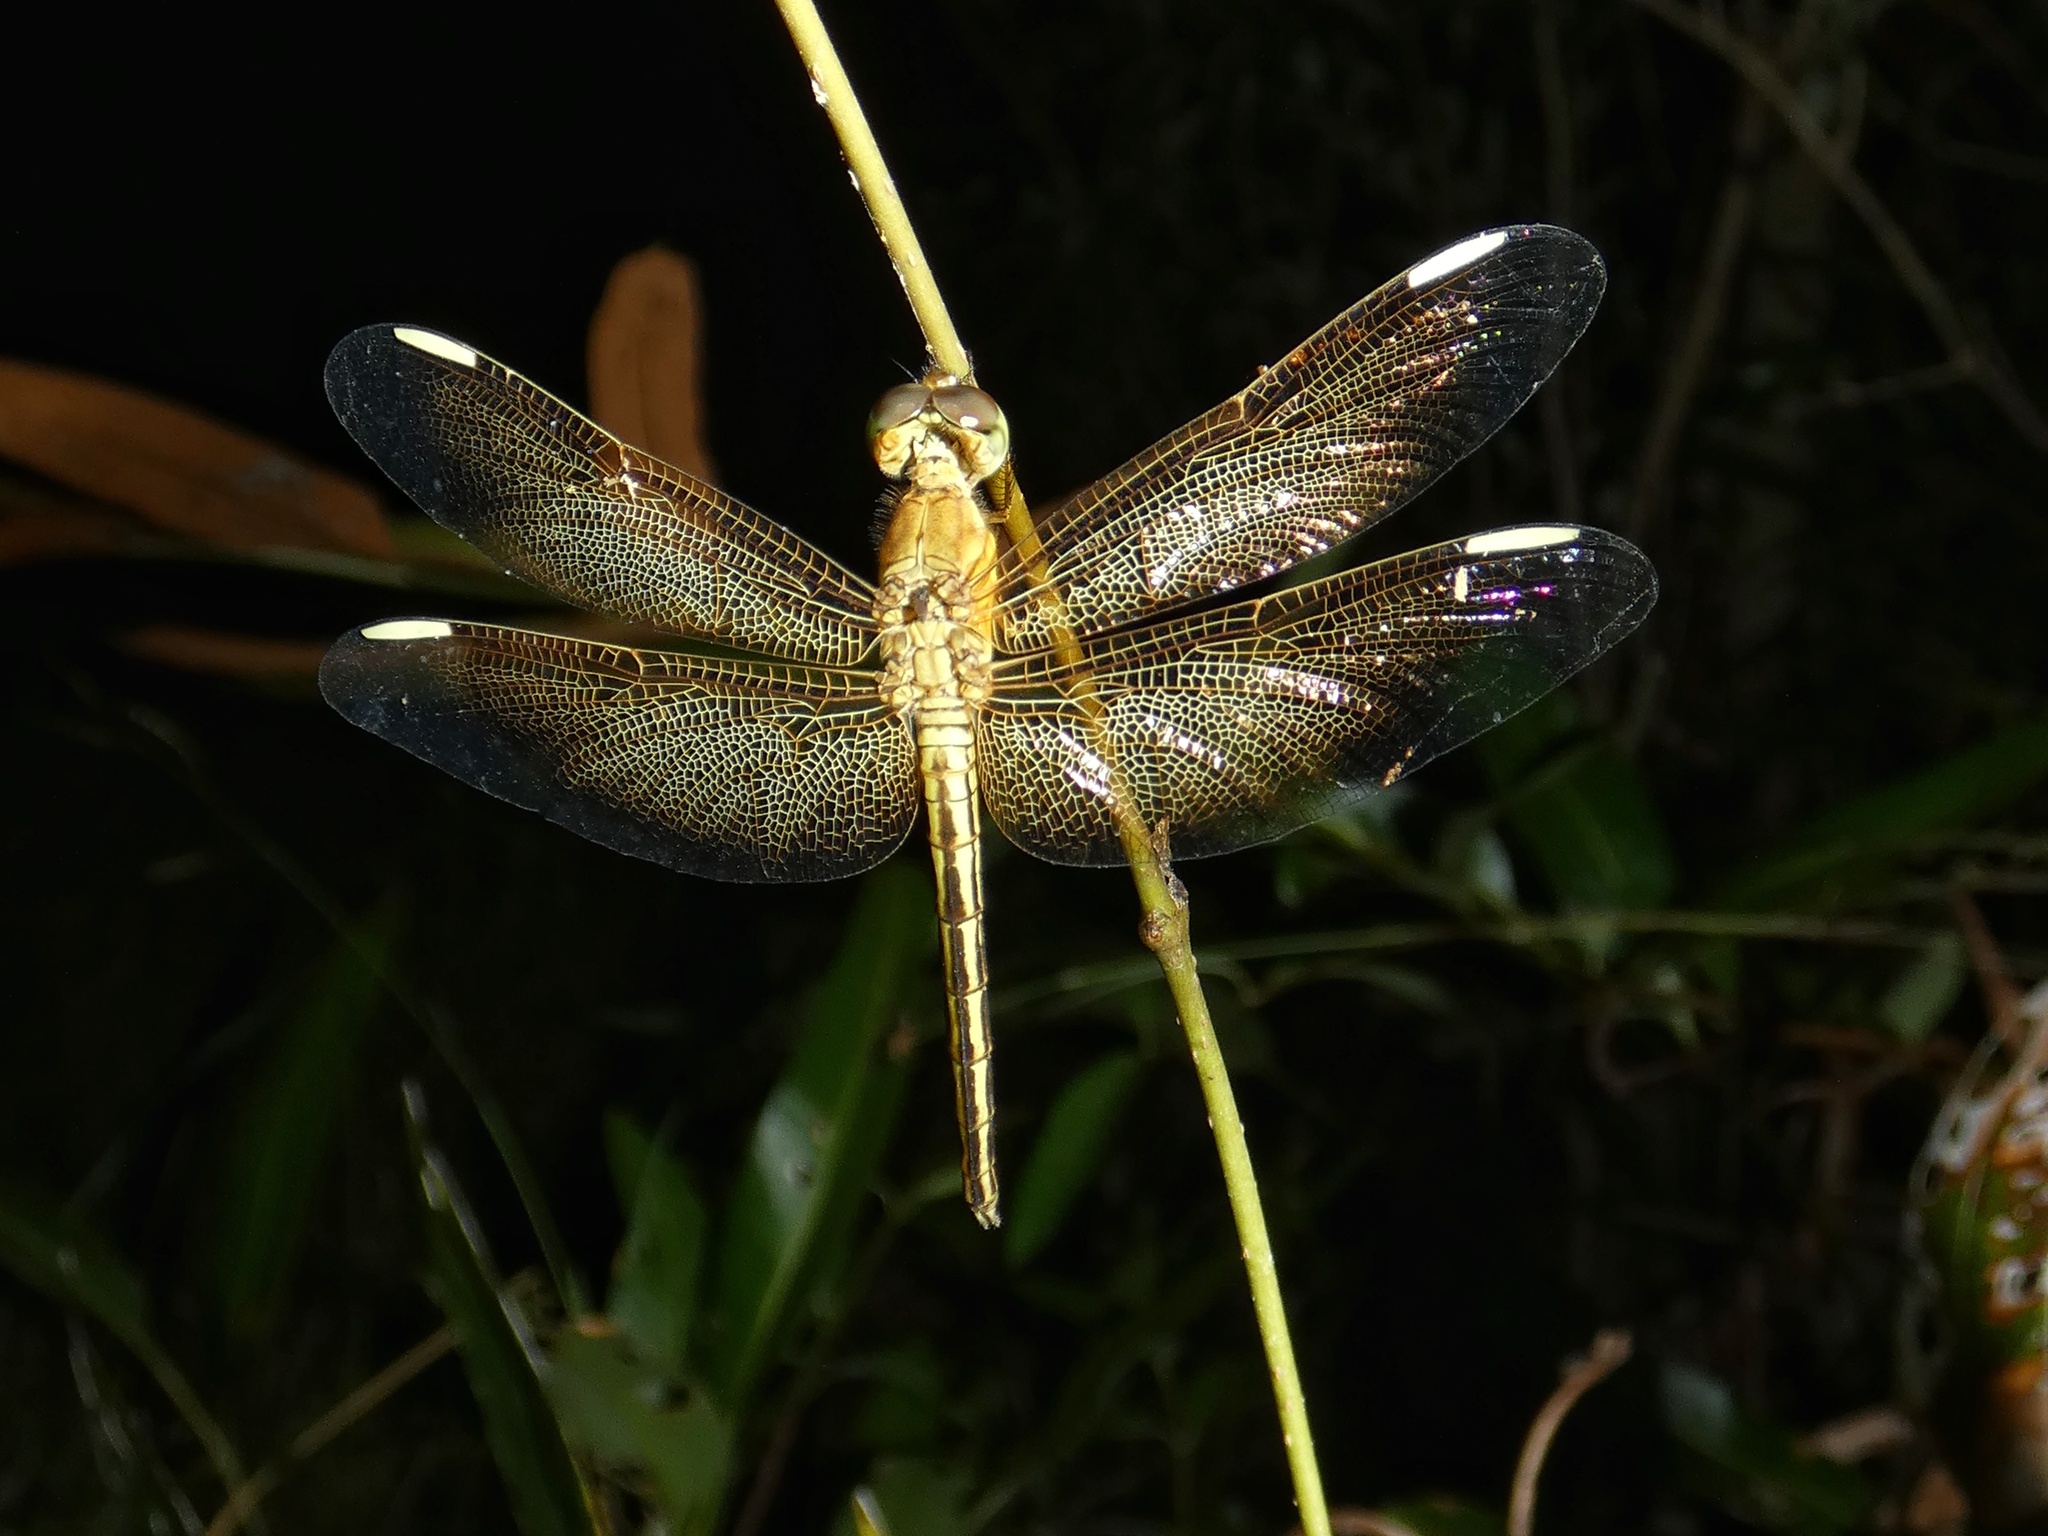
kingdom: Animalia
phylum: Arthropoda
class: Insecta
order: Odonata
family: Libellulidae
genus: Neurothemis
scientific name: Neurothemis stigmatizans
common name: Painted grasshawk
